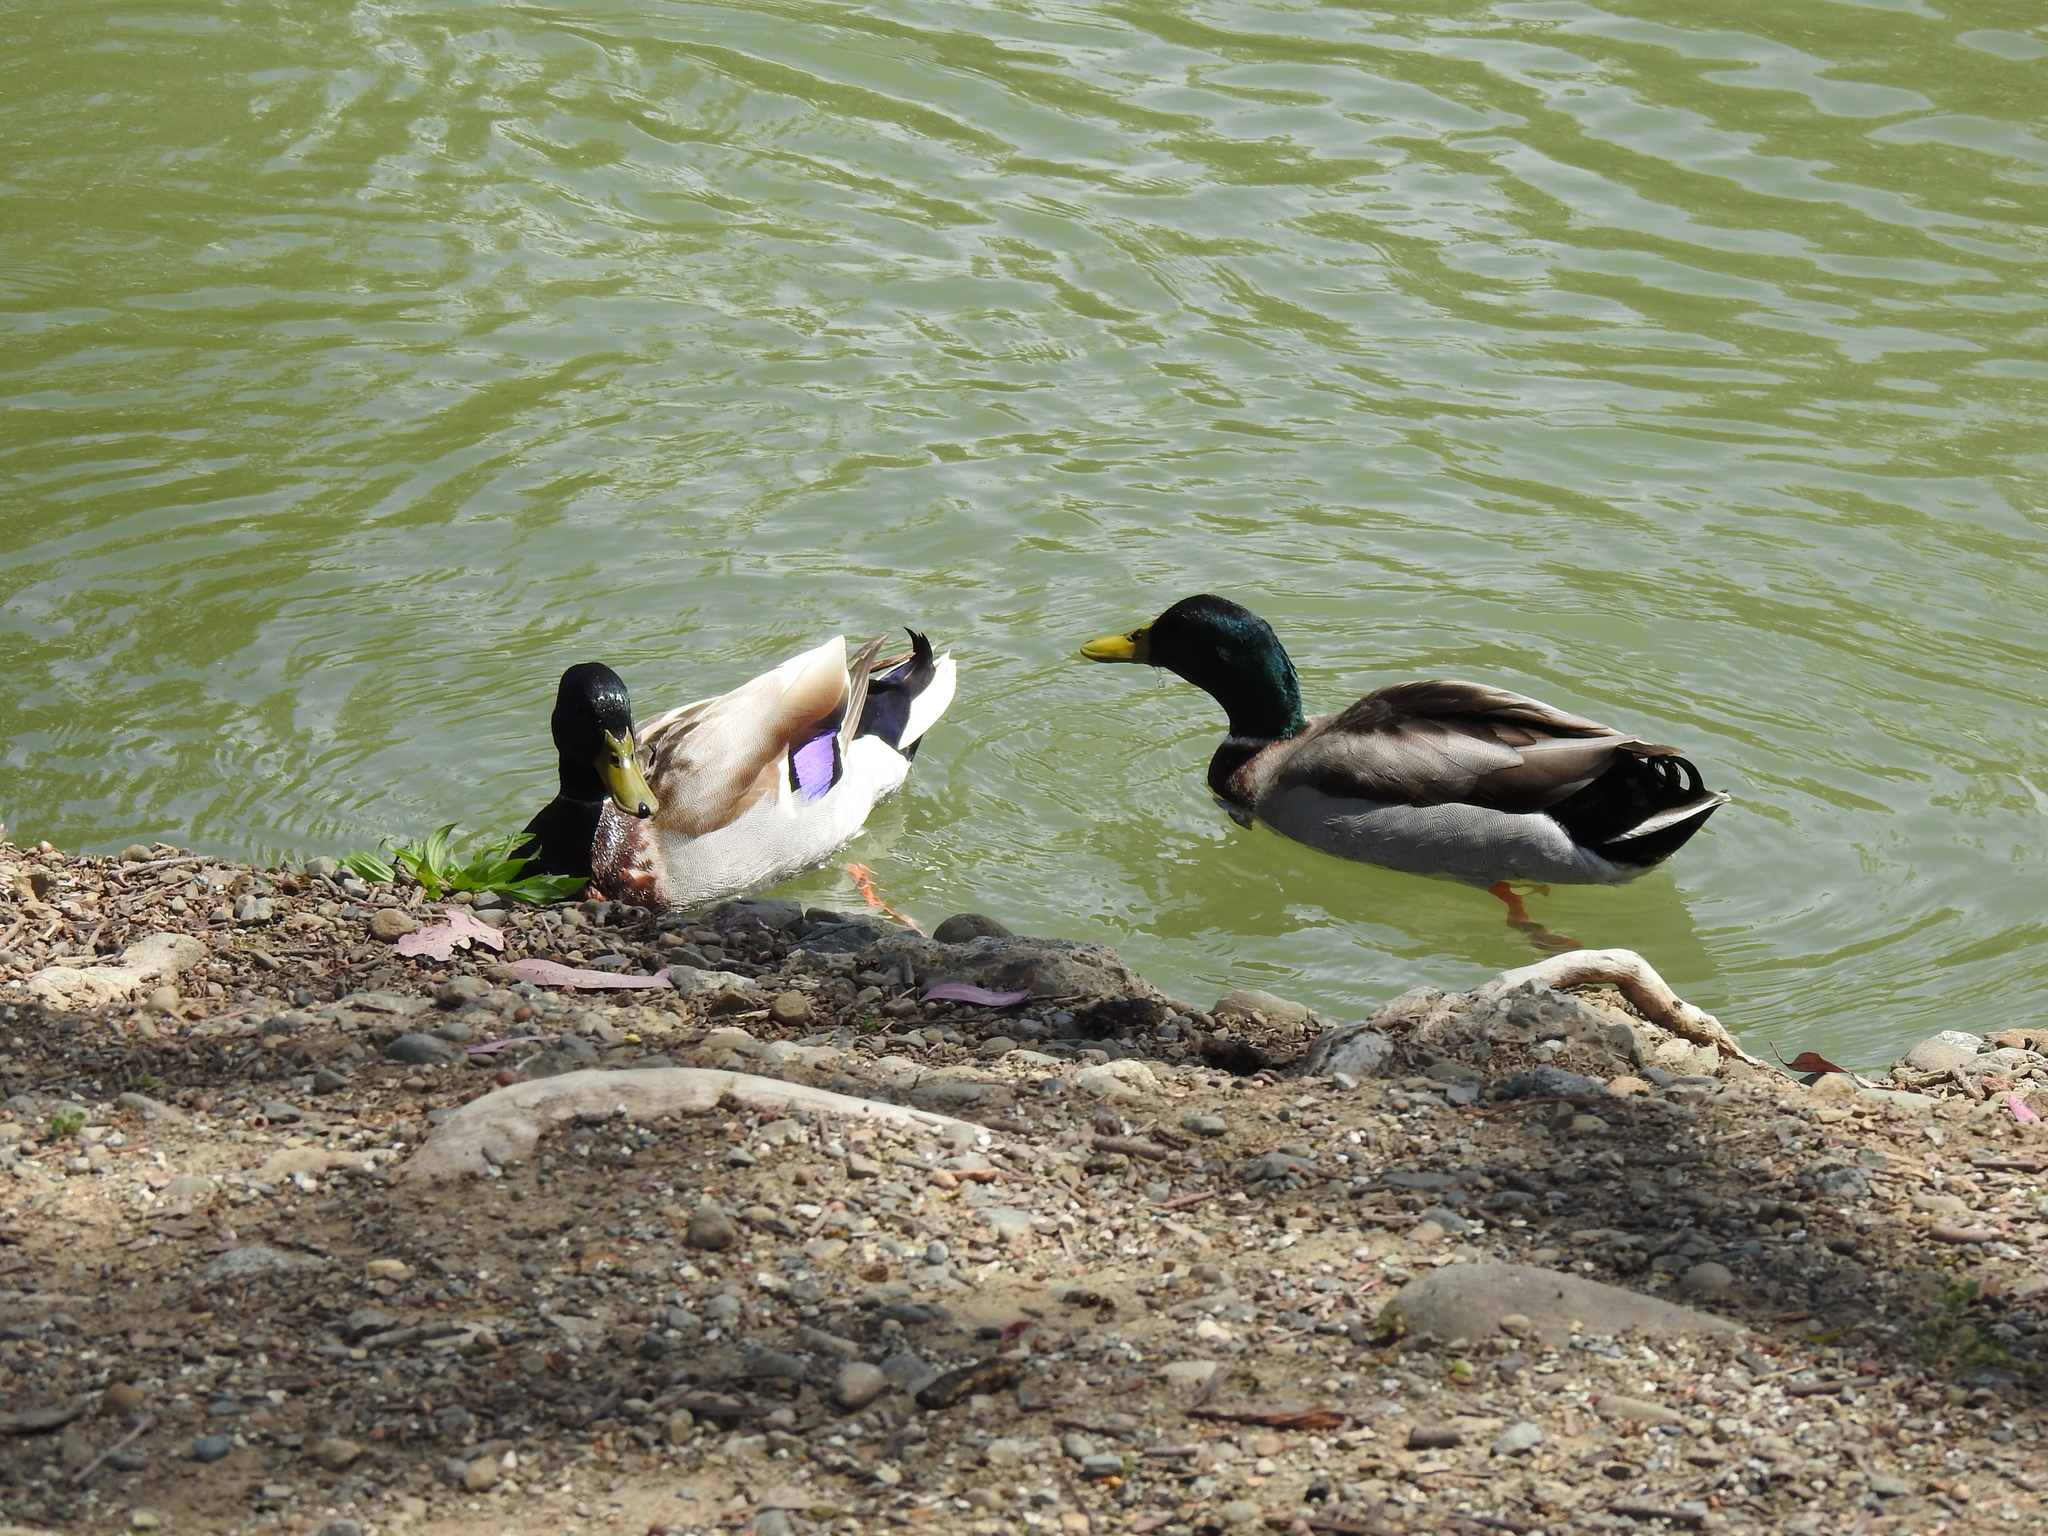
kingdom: Animalia
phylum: Chordata
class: Aves
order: Anseriformes
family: Anatidae
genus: Anas
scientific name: Anas platyrhynchos
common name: Mallard
